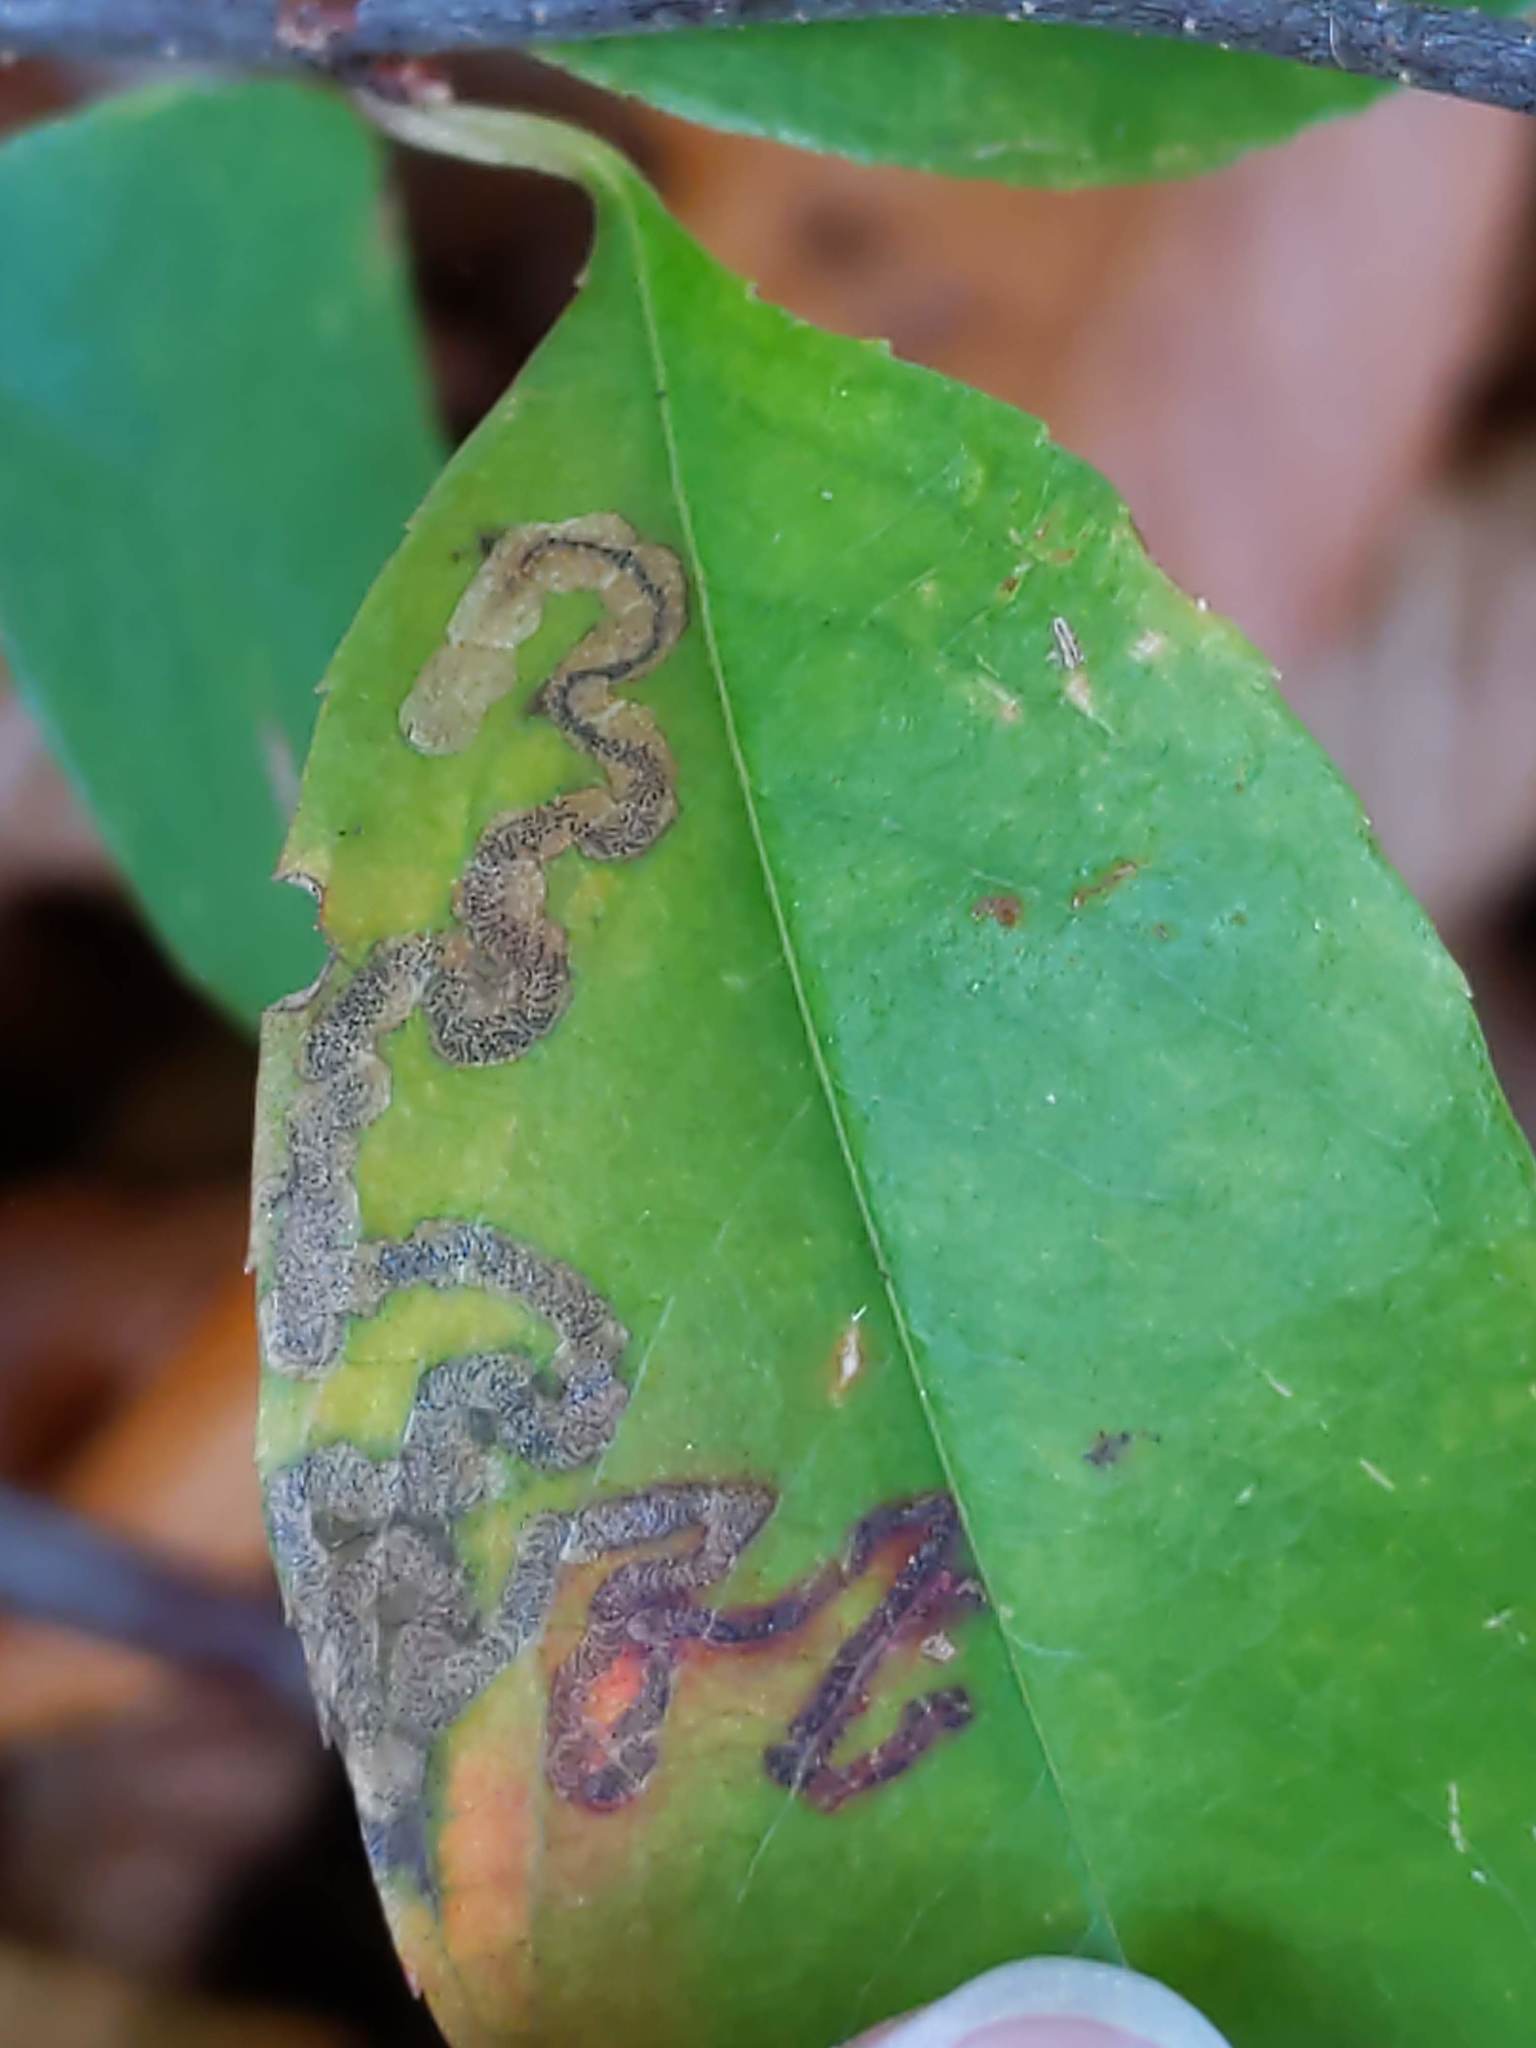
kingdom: Animalia
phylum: Arthropoda
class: Insecta
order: Lepidoptera
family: Nepticulidae
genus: Stigmella
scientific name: Stigmella prunifoliella
